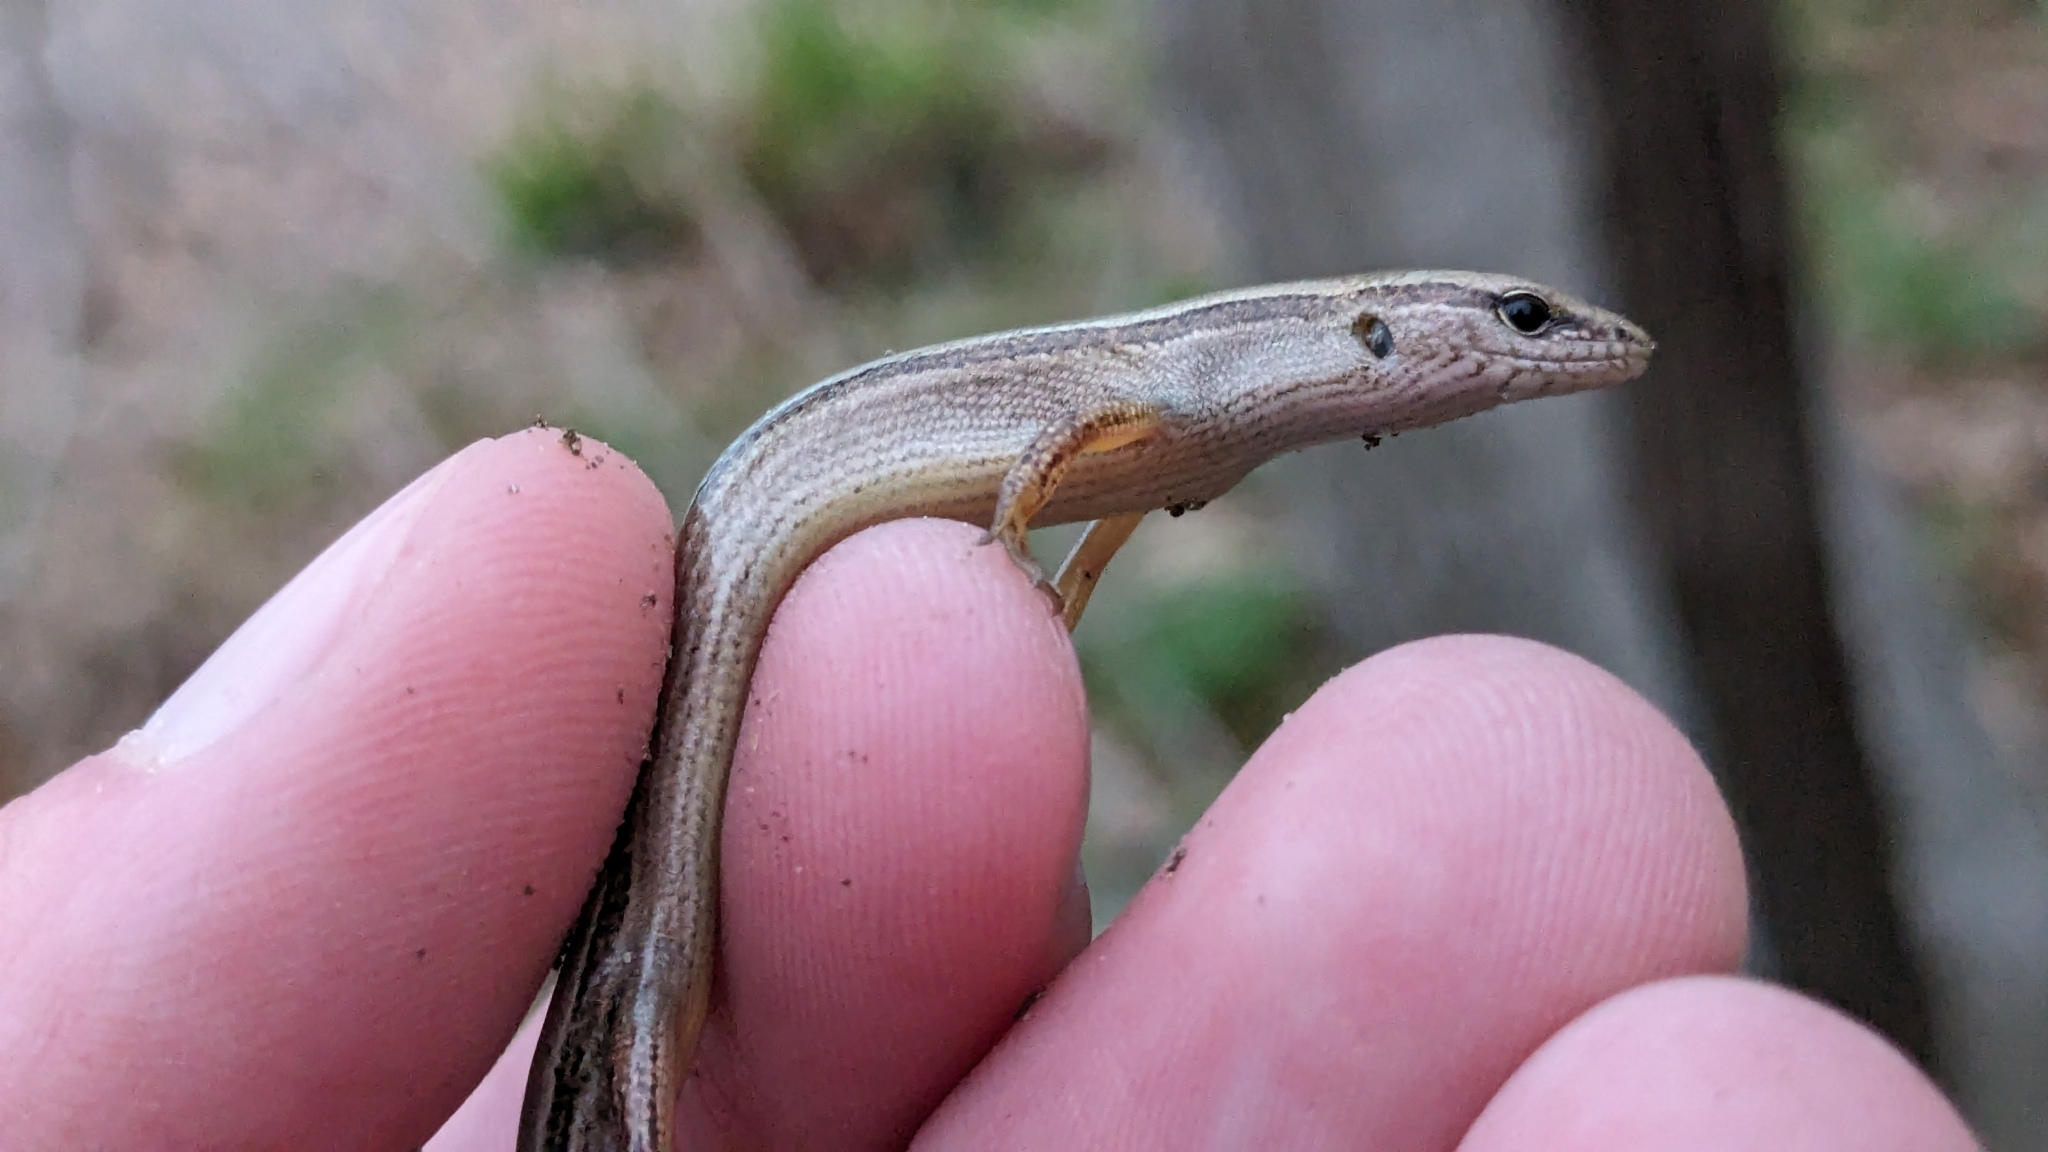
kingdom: Animalia
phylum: Chordata
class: Squamata
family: Scincidae
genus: Scincella
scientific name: Scincella lateralis
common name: Ground skink
